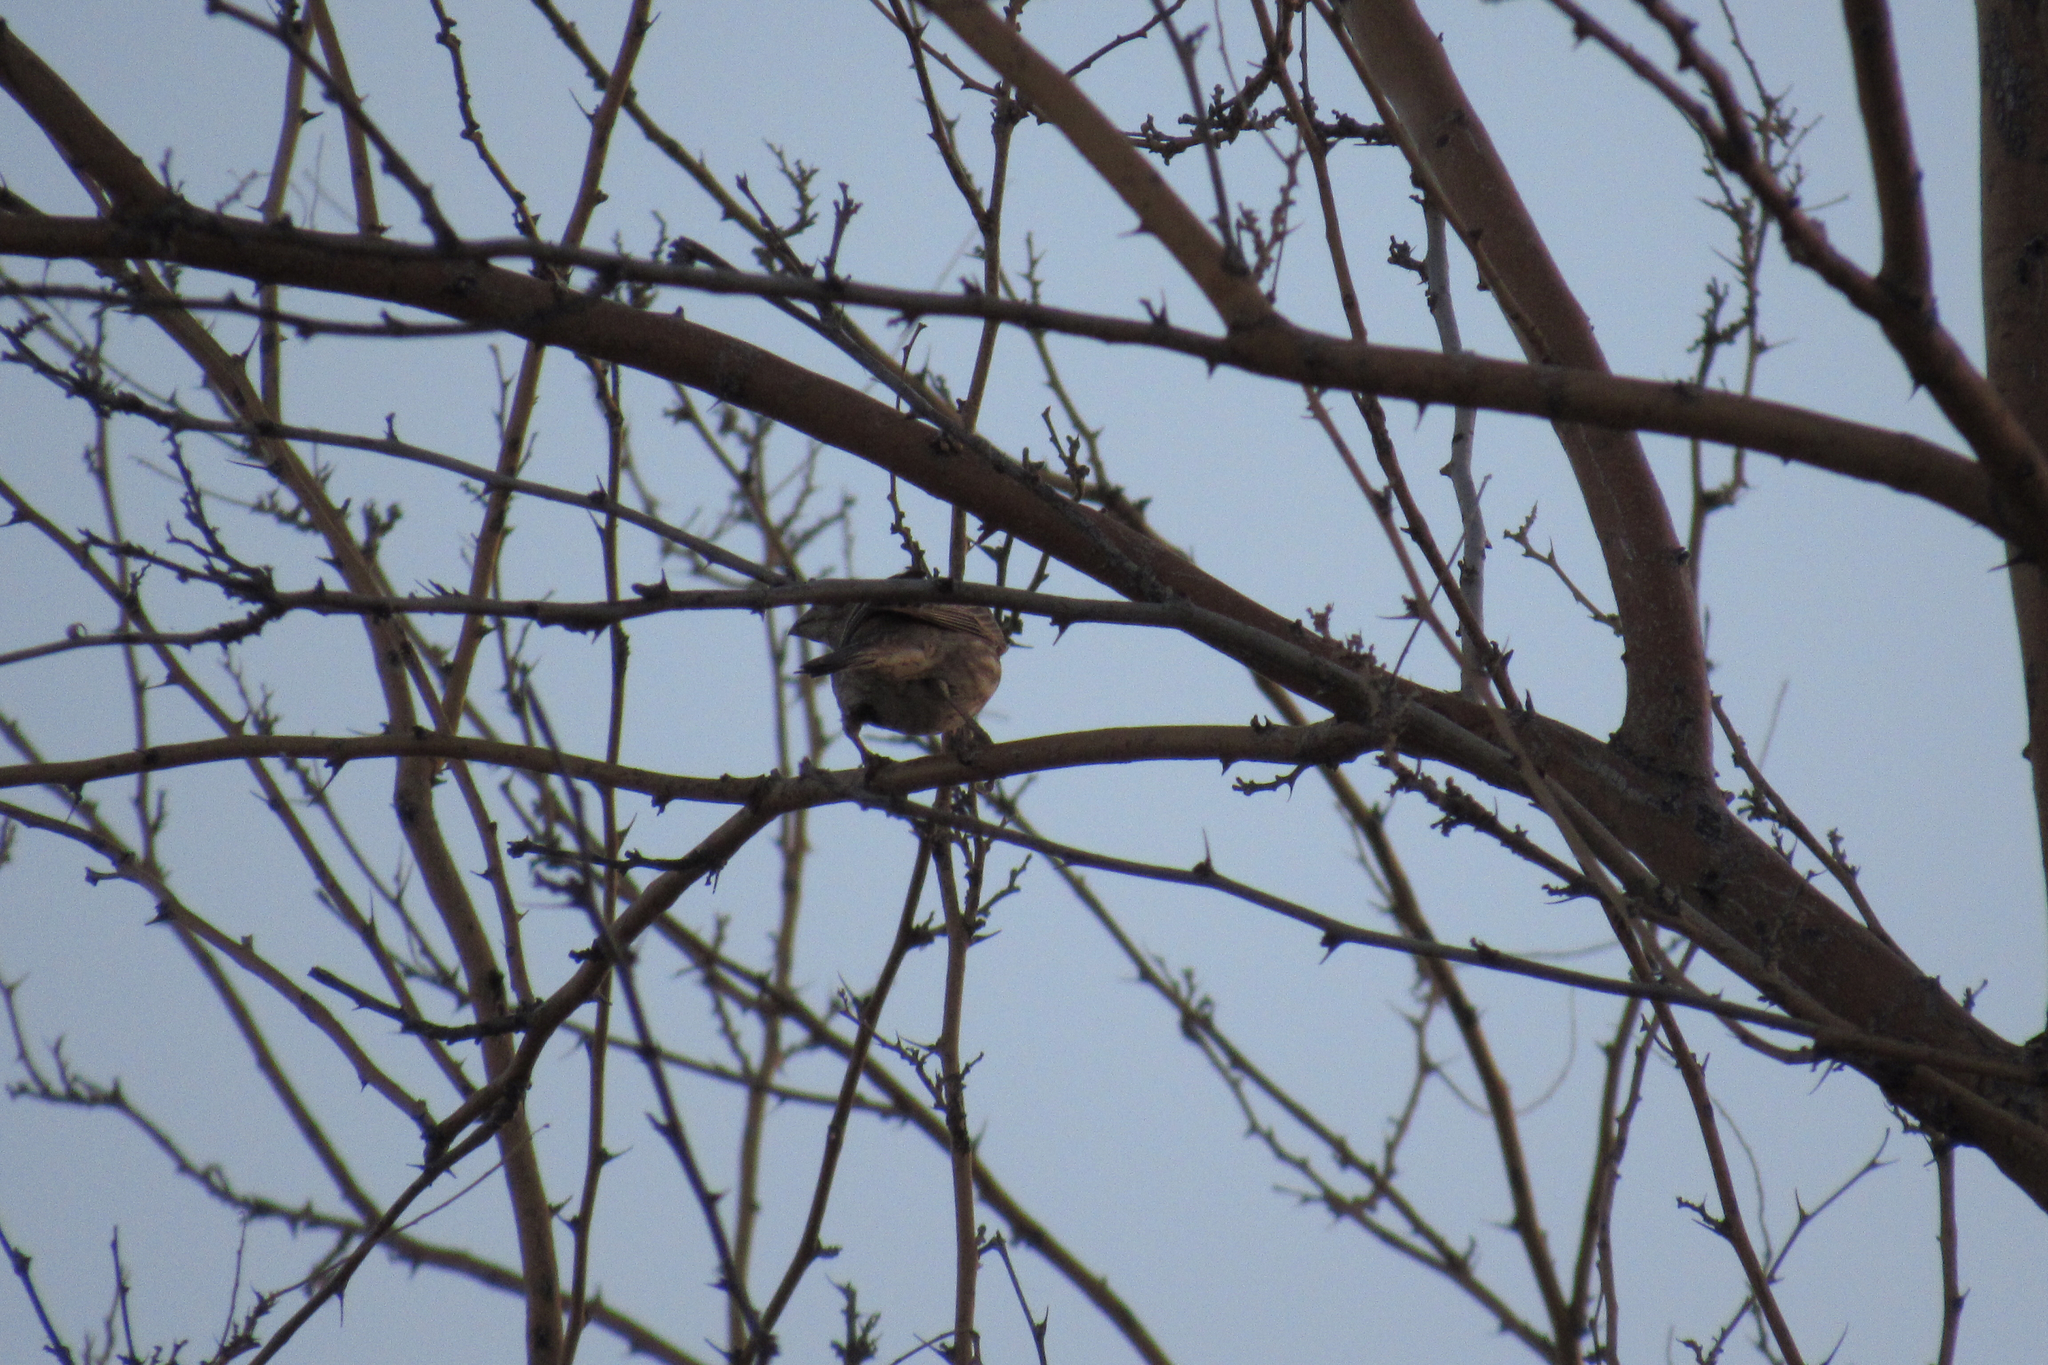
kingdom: Animalia
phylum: Chordata
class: Aves
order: Passeriformes
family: Fringillidae
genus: Haemorhous
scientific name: Haemorhous mexicanus
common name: House finch
